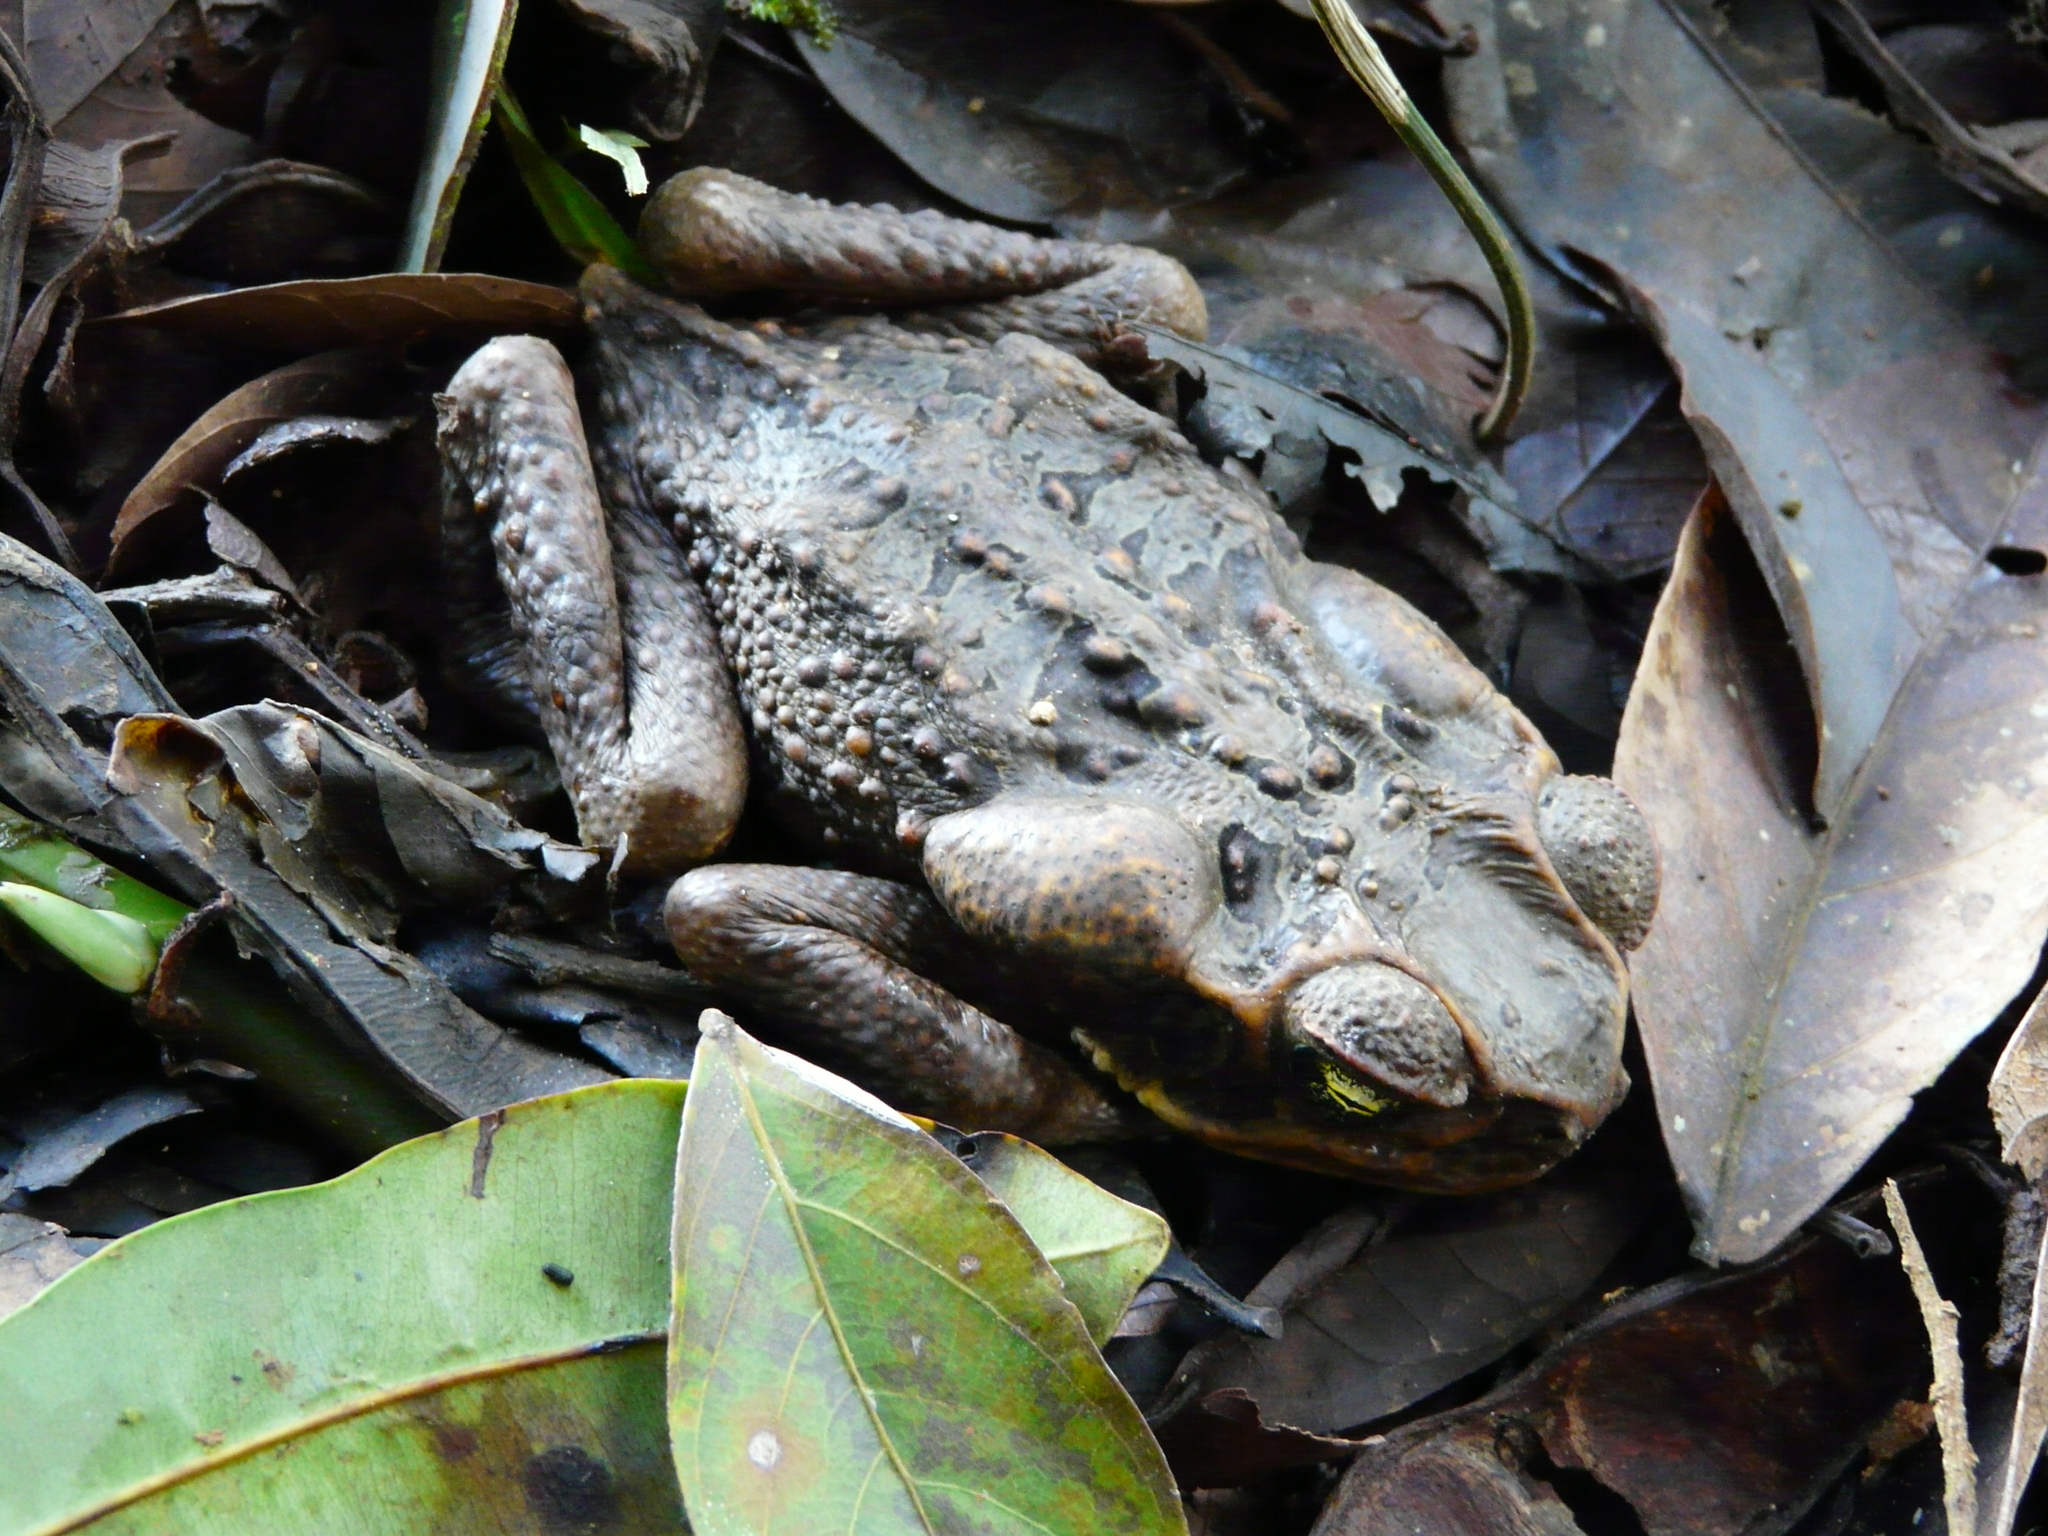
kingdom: Animalia
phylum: Chordata
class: Amphibia
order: Anura
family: Bufonidae
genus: Rhinella
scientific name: Rhinella marina
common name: Cane toad
